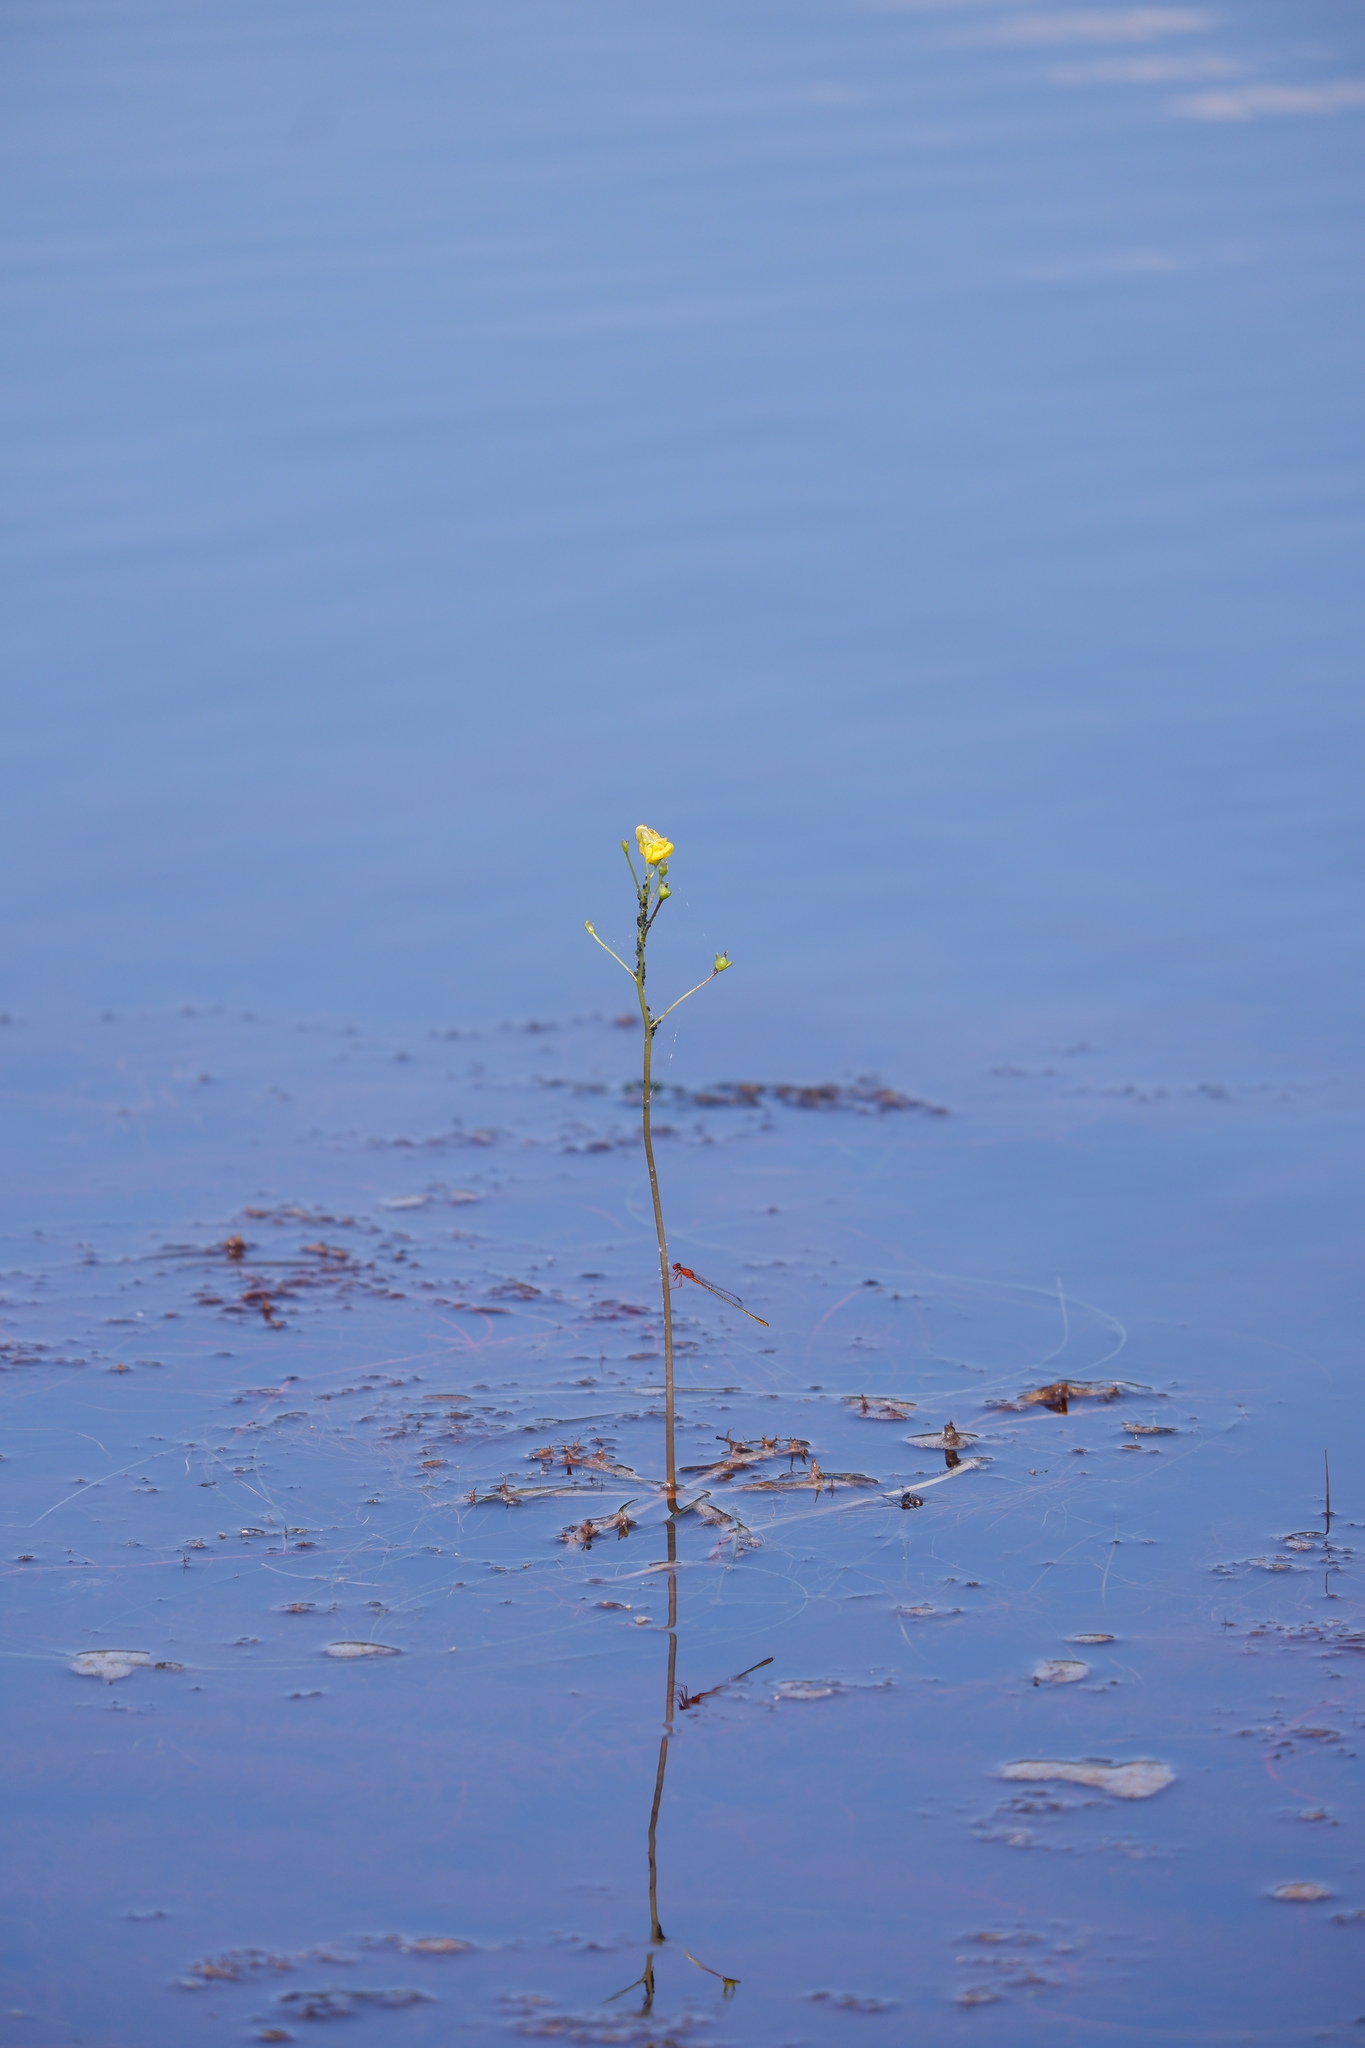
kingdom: Plantae
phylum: Tracheophyta
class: Magnoliopsida
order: Lamiales
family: Lentibulariaceae
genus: Utricularia
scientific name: Utricularia inflata
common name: Floating bladderwort
